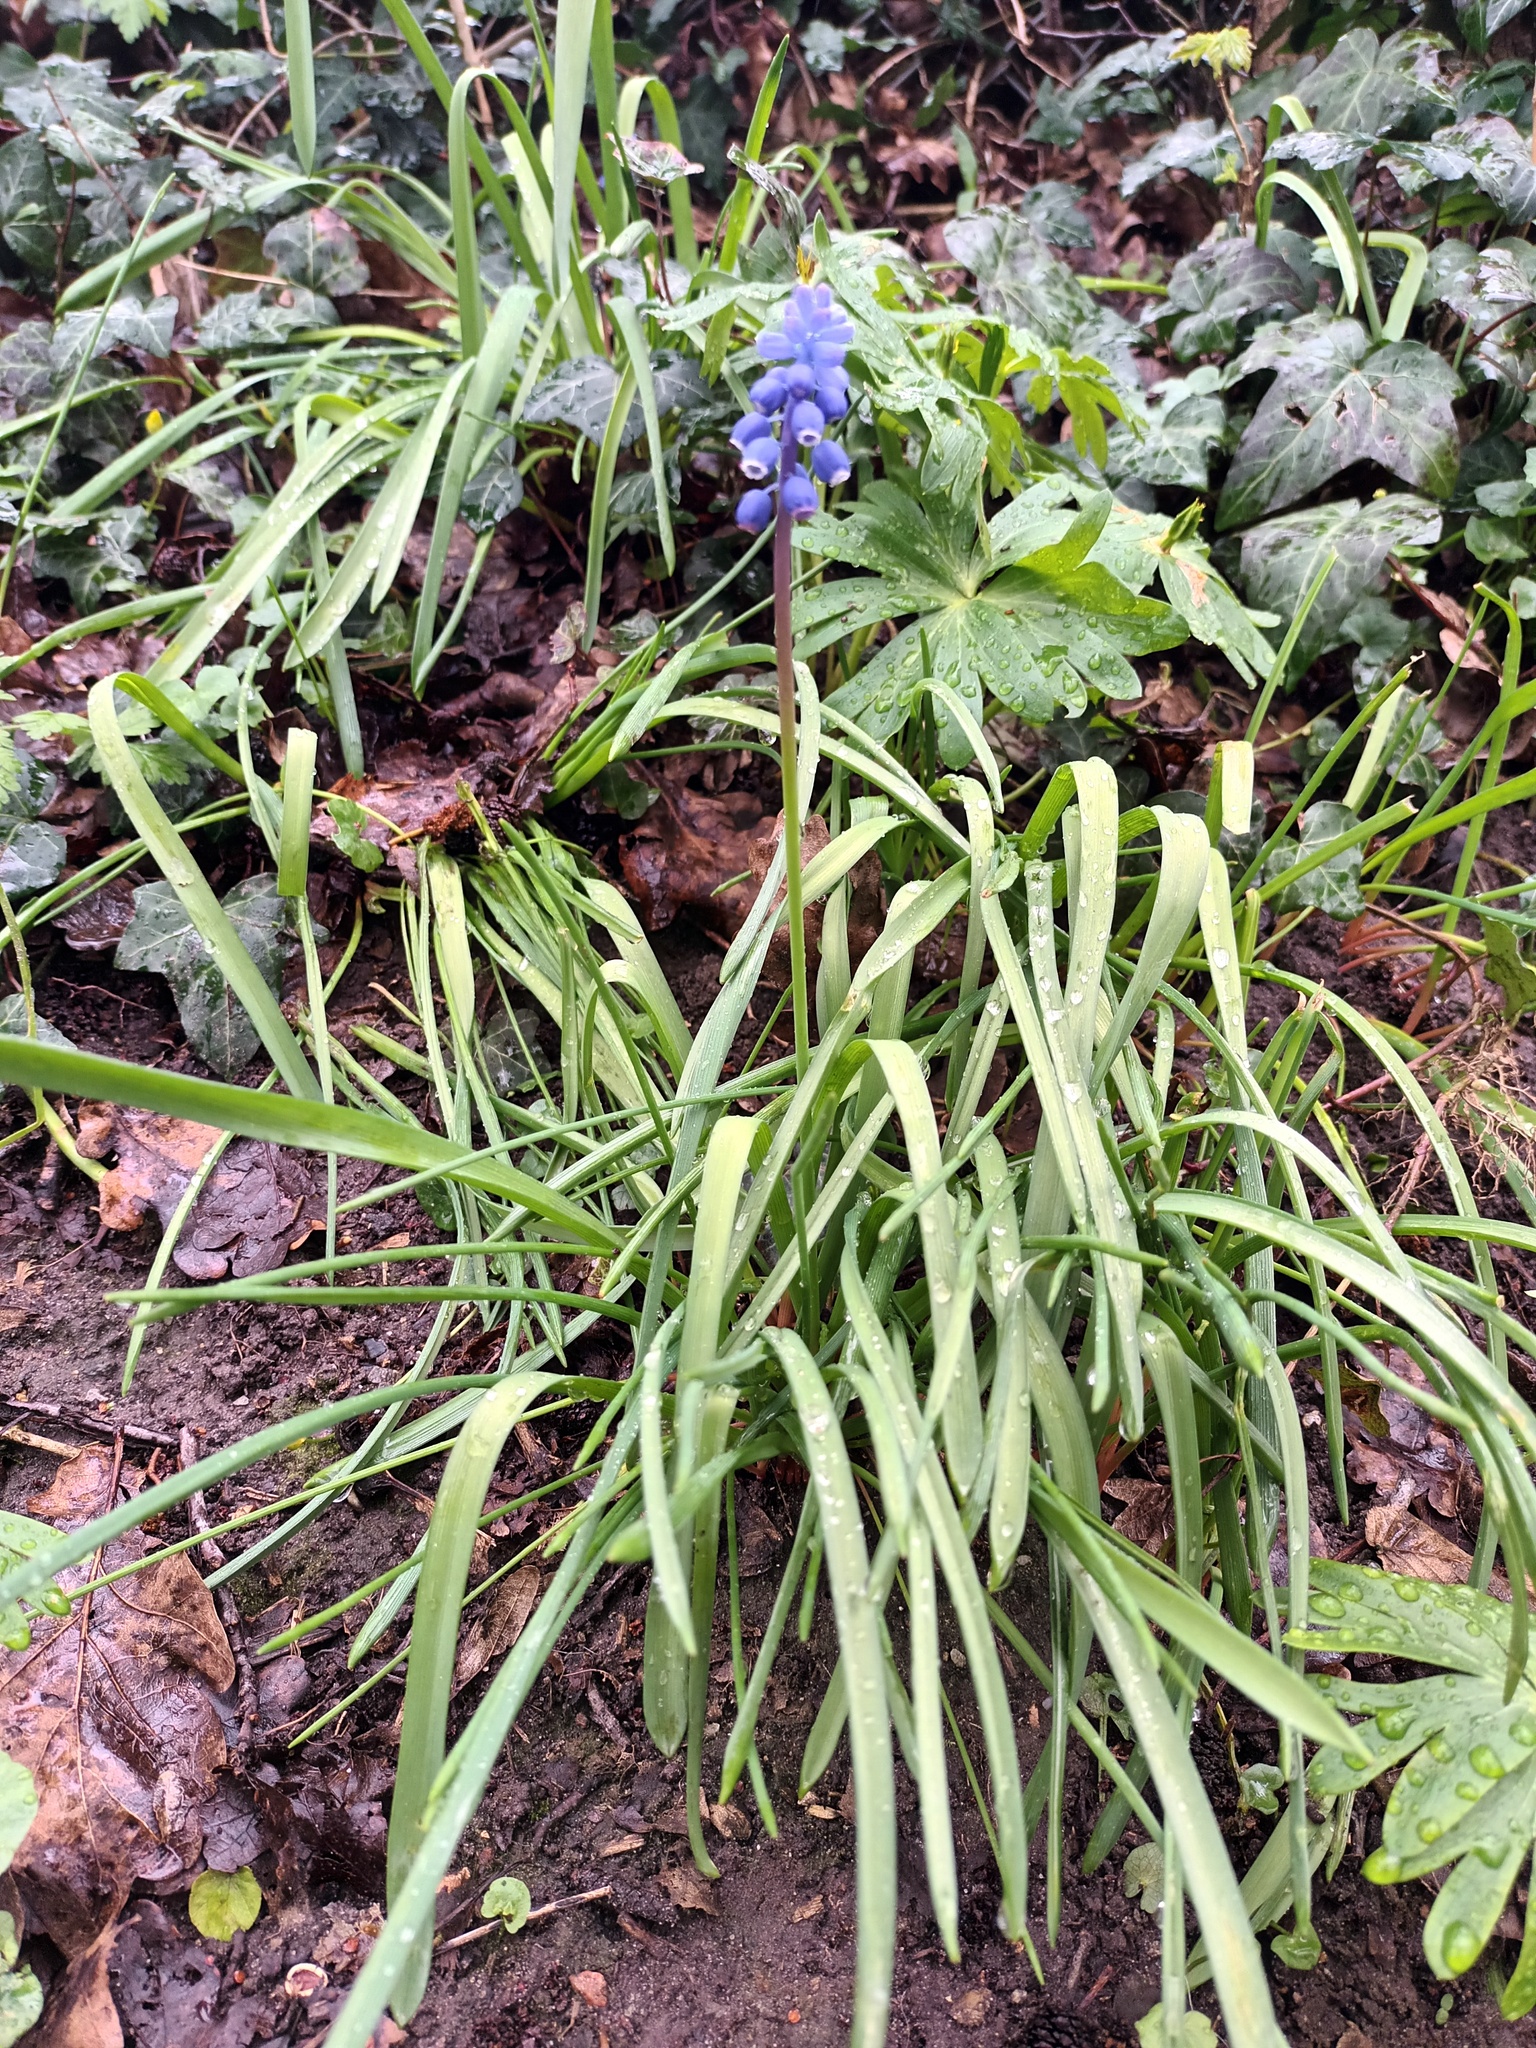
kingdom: Plantae
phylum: Tracheophyta
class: Liliopsida
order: Asparagales
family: Asparagaceae
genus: Muscari
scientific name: Muscari botryoides
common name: Compact grape-hyacinth
